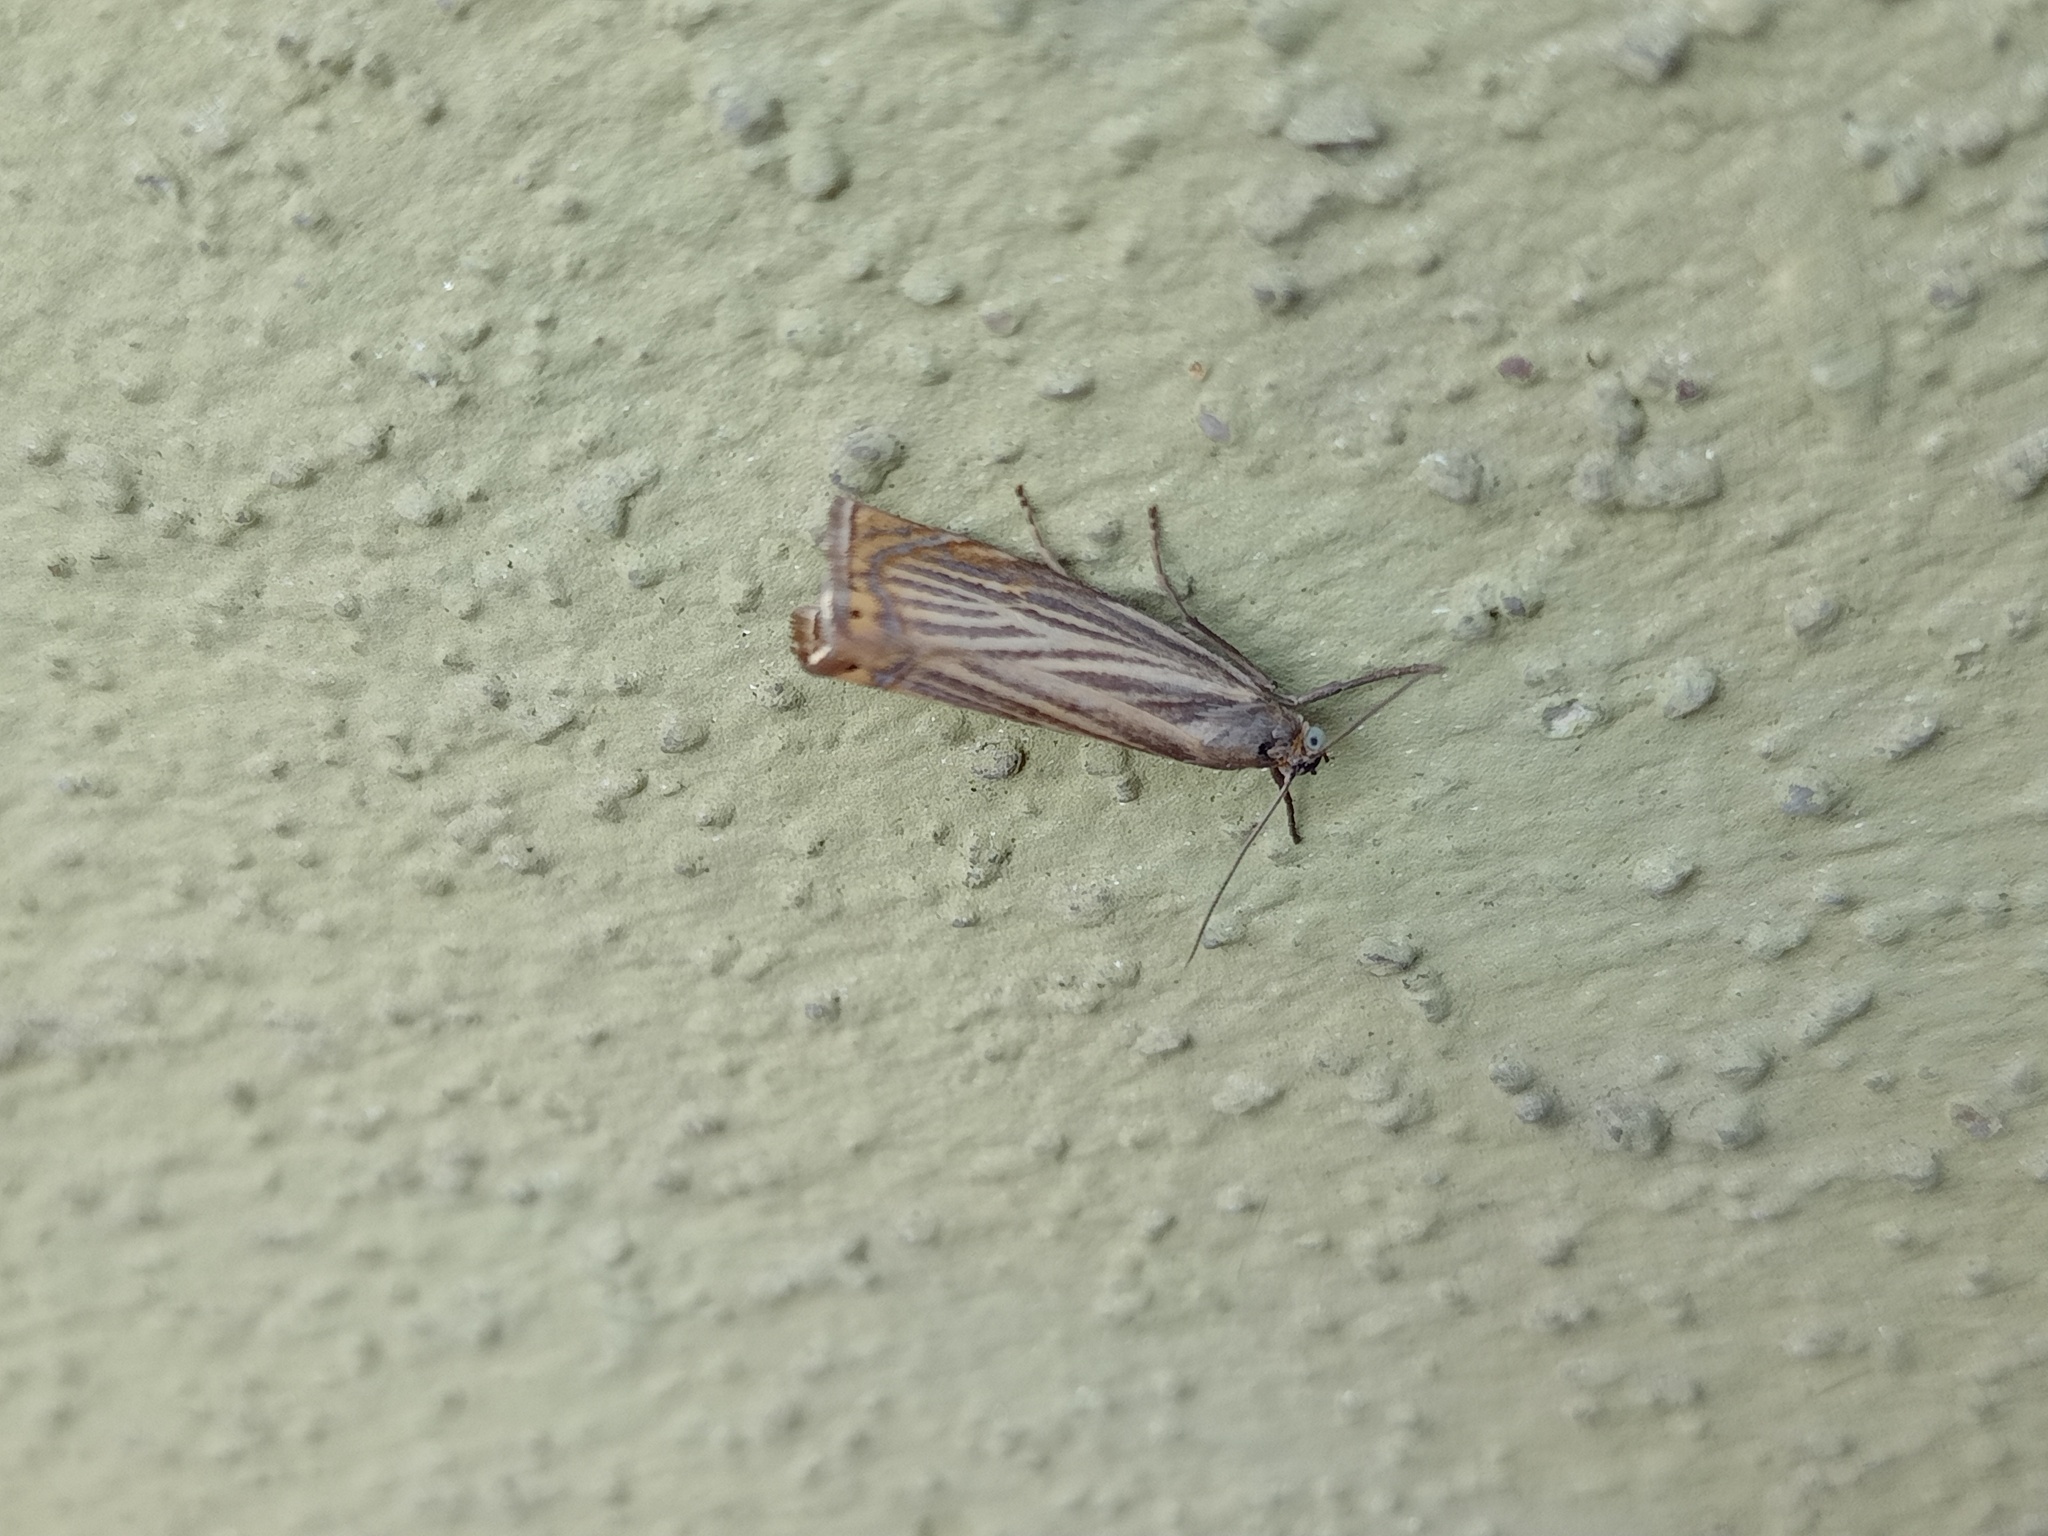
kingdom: Animalia
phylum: Arthropoda
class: Insecta
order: Lepidoptera
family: Crambidae
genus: Chrysoteuchia
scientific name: Chrysoteuchia culmella
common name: Garden grass-veneer
